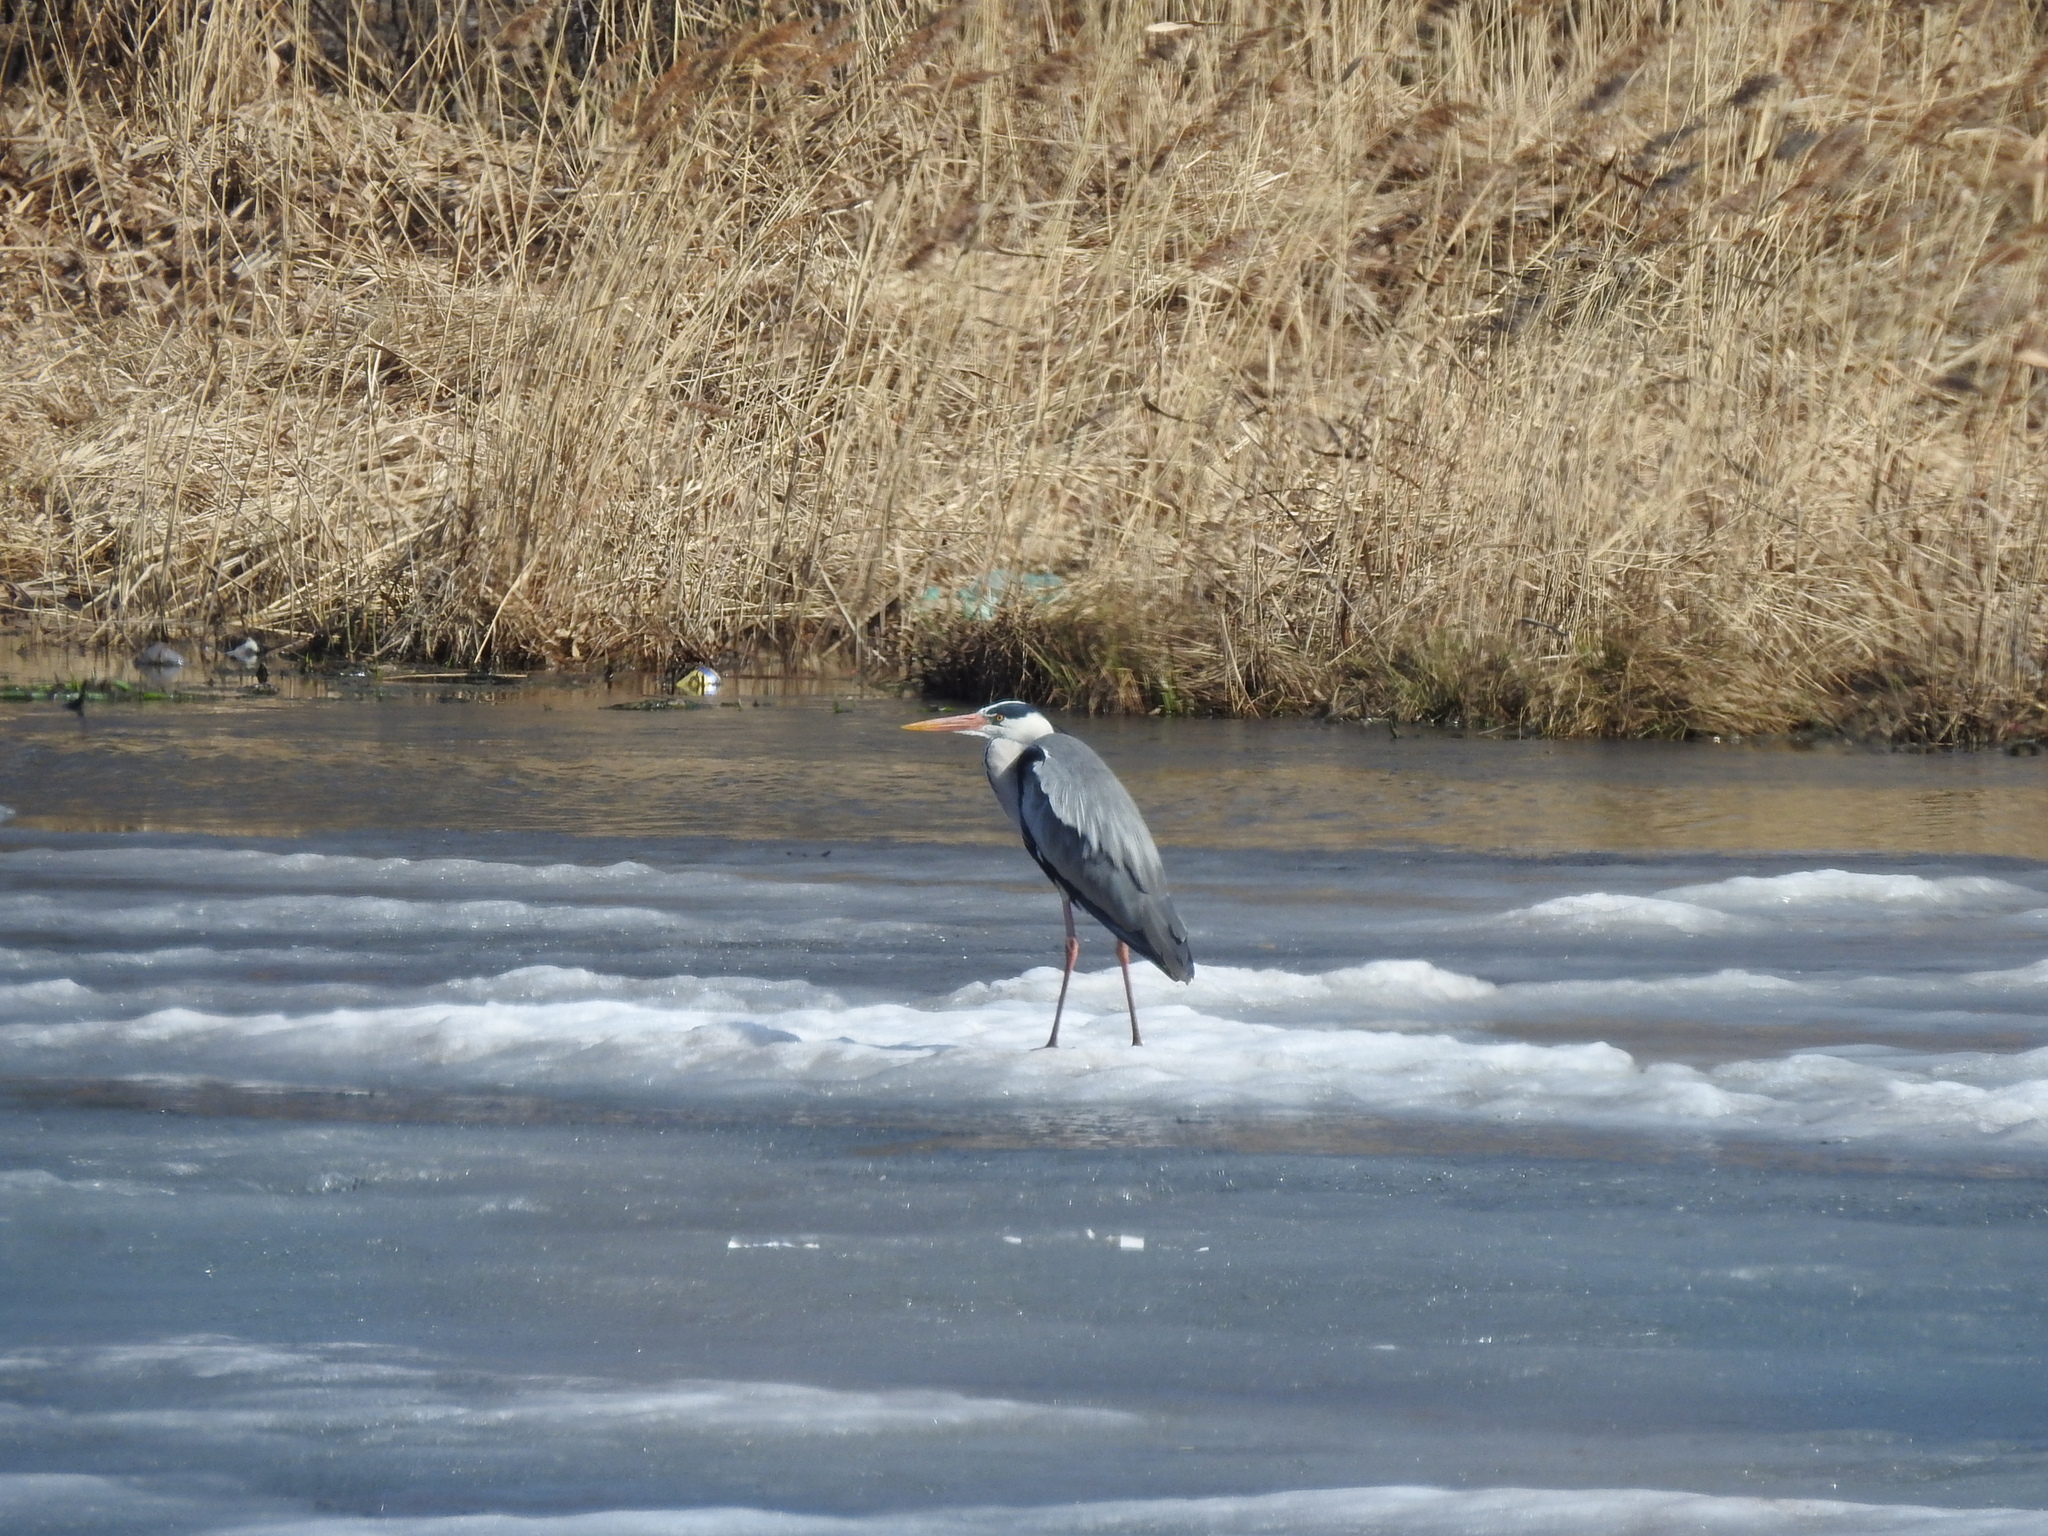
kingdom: Animalia
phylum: Chordata
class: Aves
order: Pelecaniformes
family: Ardeidae
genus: Ardea
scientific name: Ardea cinerea
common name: Grey heron
